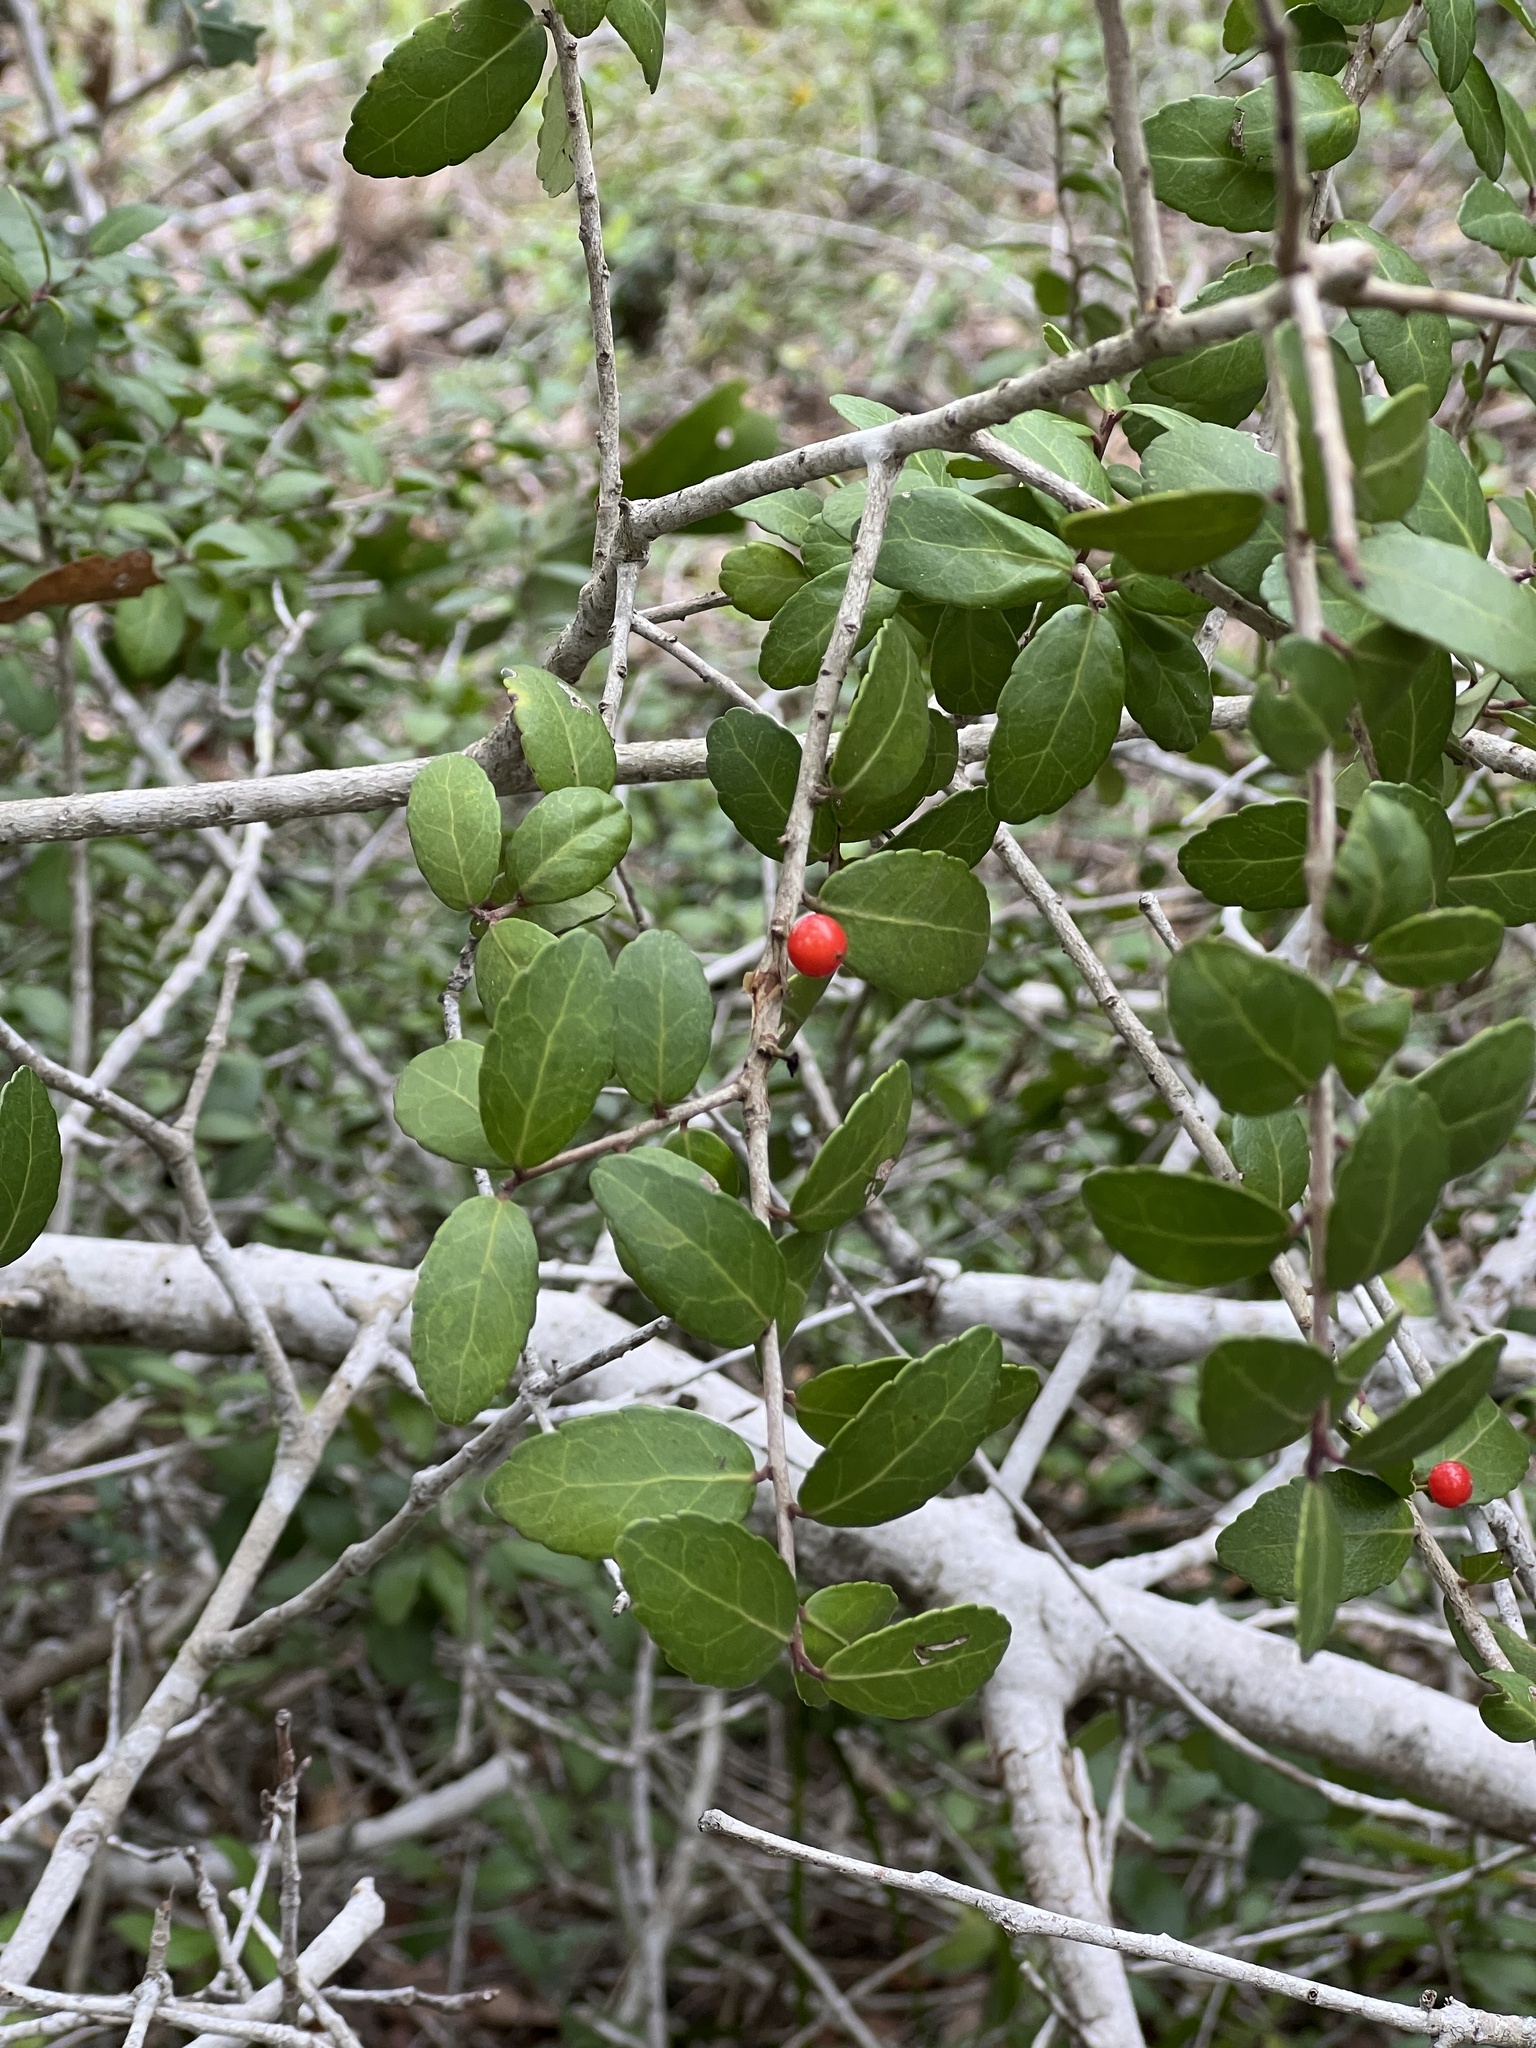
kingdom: Plantae
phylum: Tracheophyta
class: Magnoliopsida
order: Aquifoliales
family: Aquifoliaceae
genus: Ilex
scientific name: Ilex vomitoria
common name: Yaupon holly
